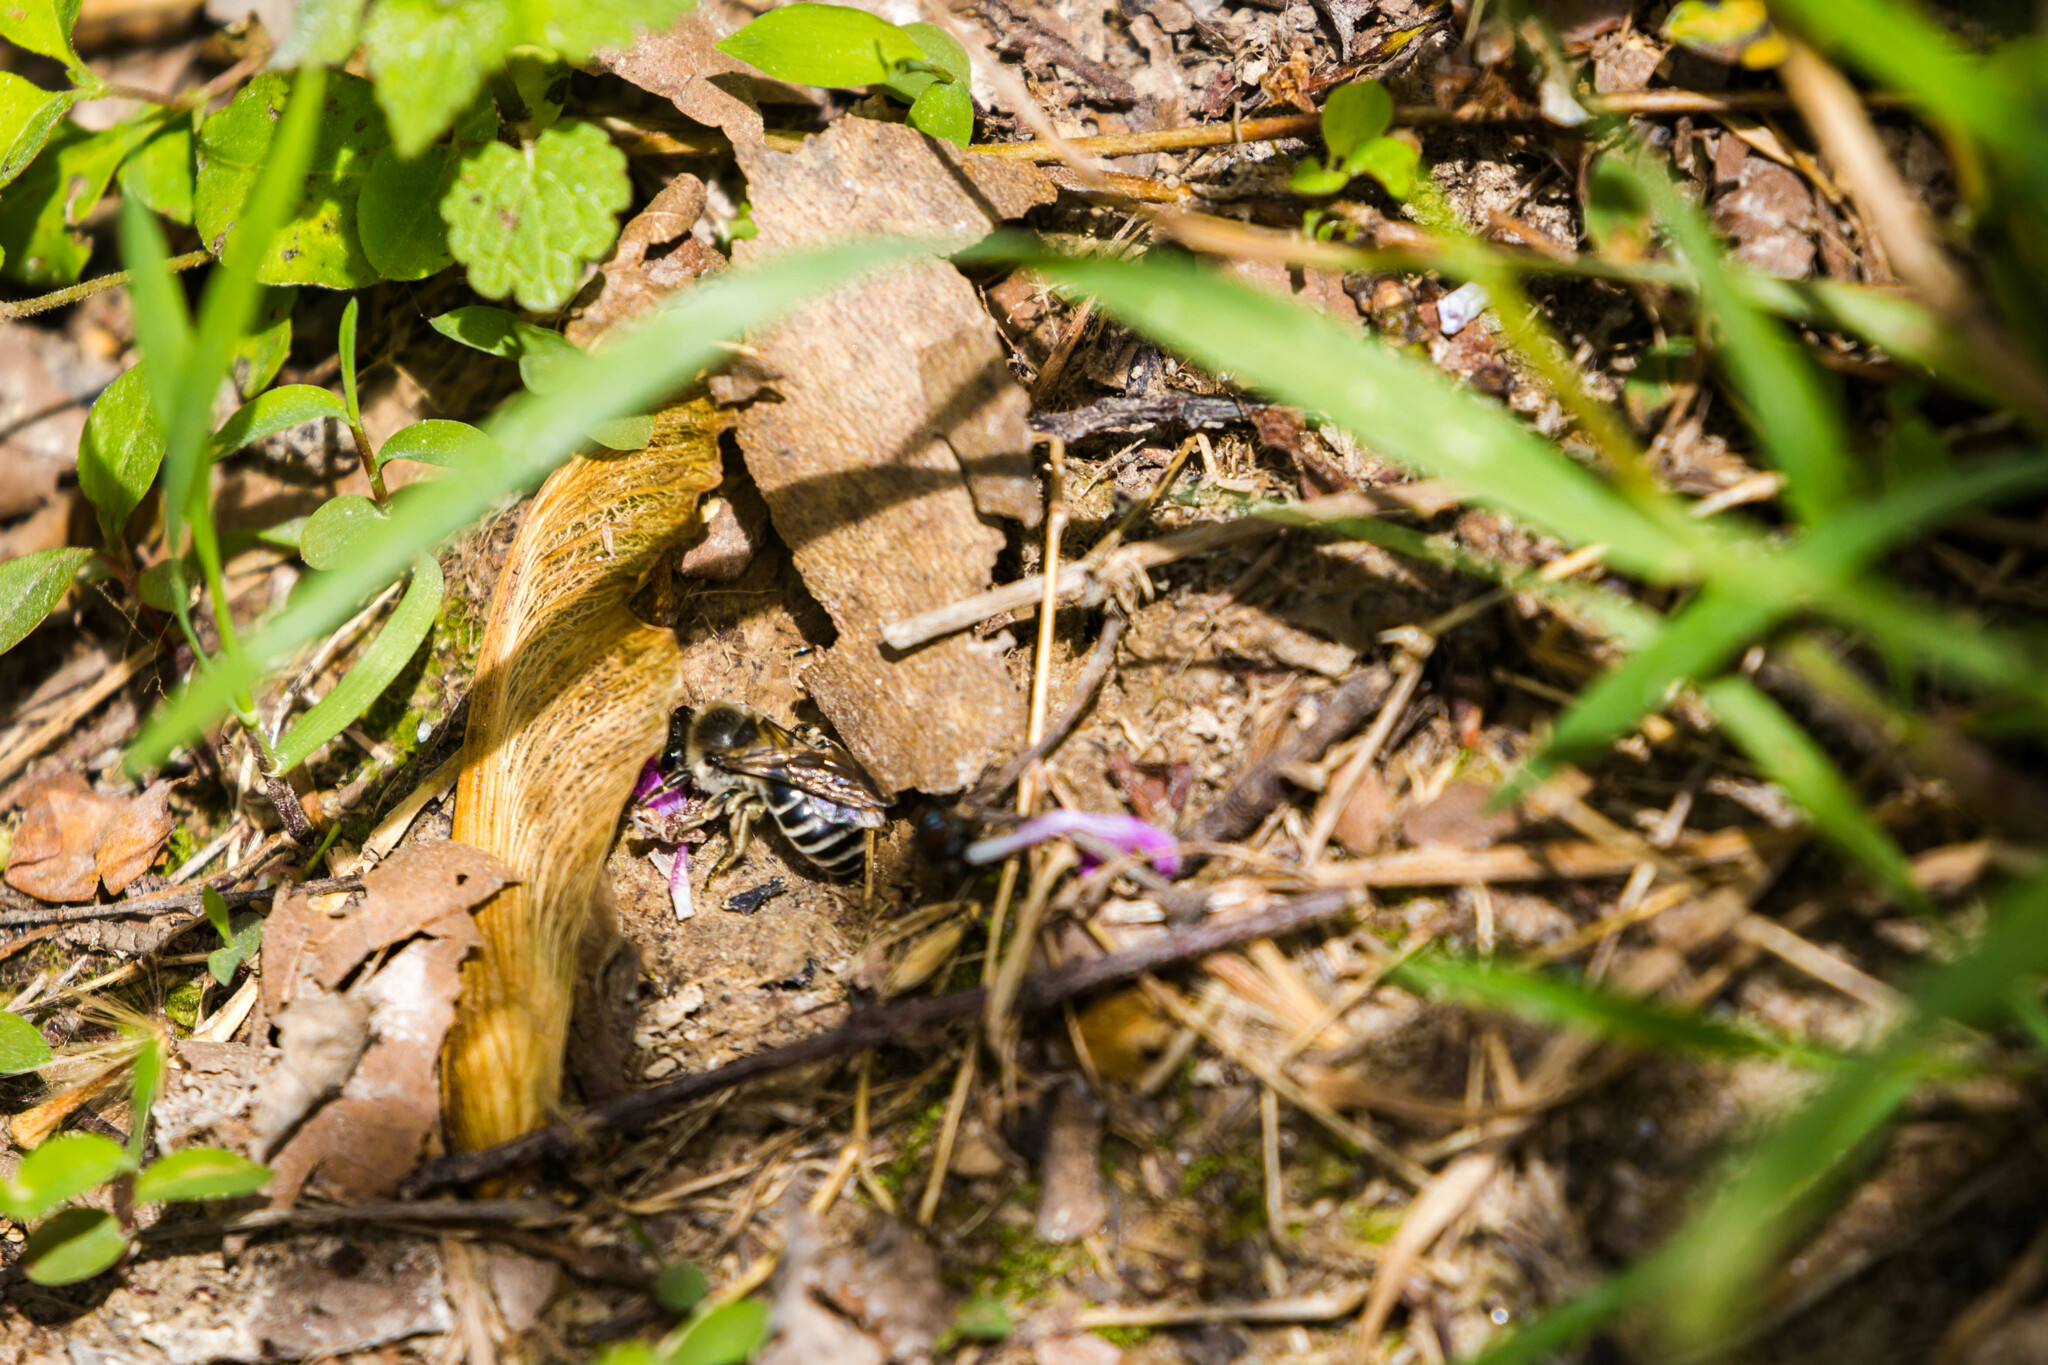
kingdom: Animalia
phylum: Arthropoda
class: Insecta
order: Hymenoptera
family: Colletidae
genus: Colletes
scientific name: Colletes inaequalis
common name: Unequal cellophane bee
